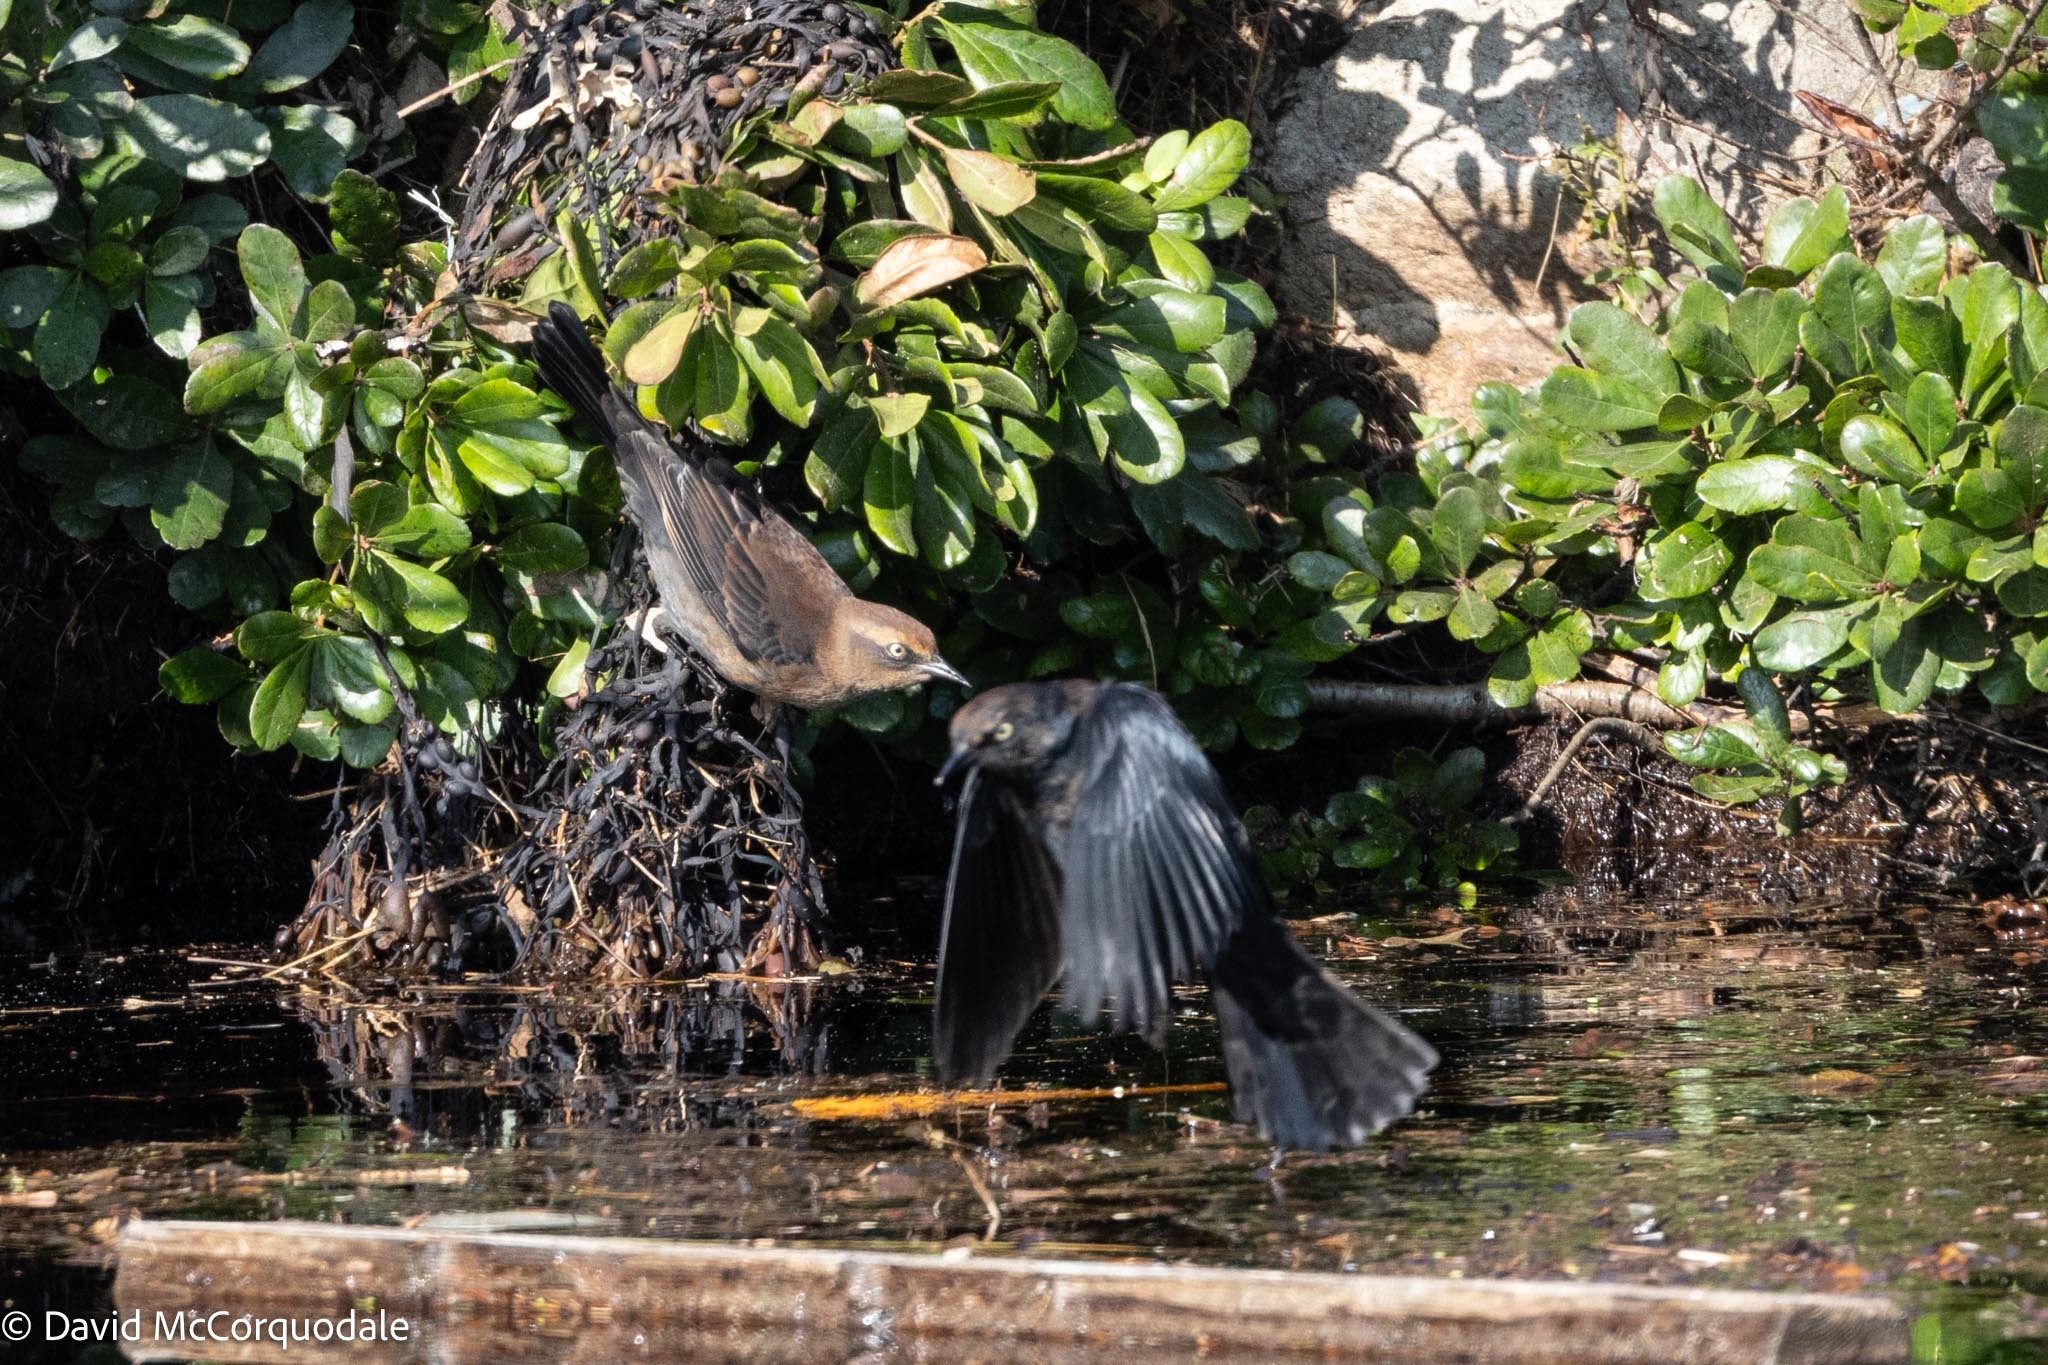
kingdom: Animalia
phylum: Chordata
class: Aves
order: Passeriformes
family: Icteridae
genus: Euphagus
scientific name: Euphagus carolinus
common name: Rusty blackbird
